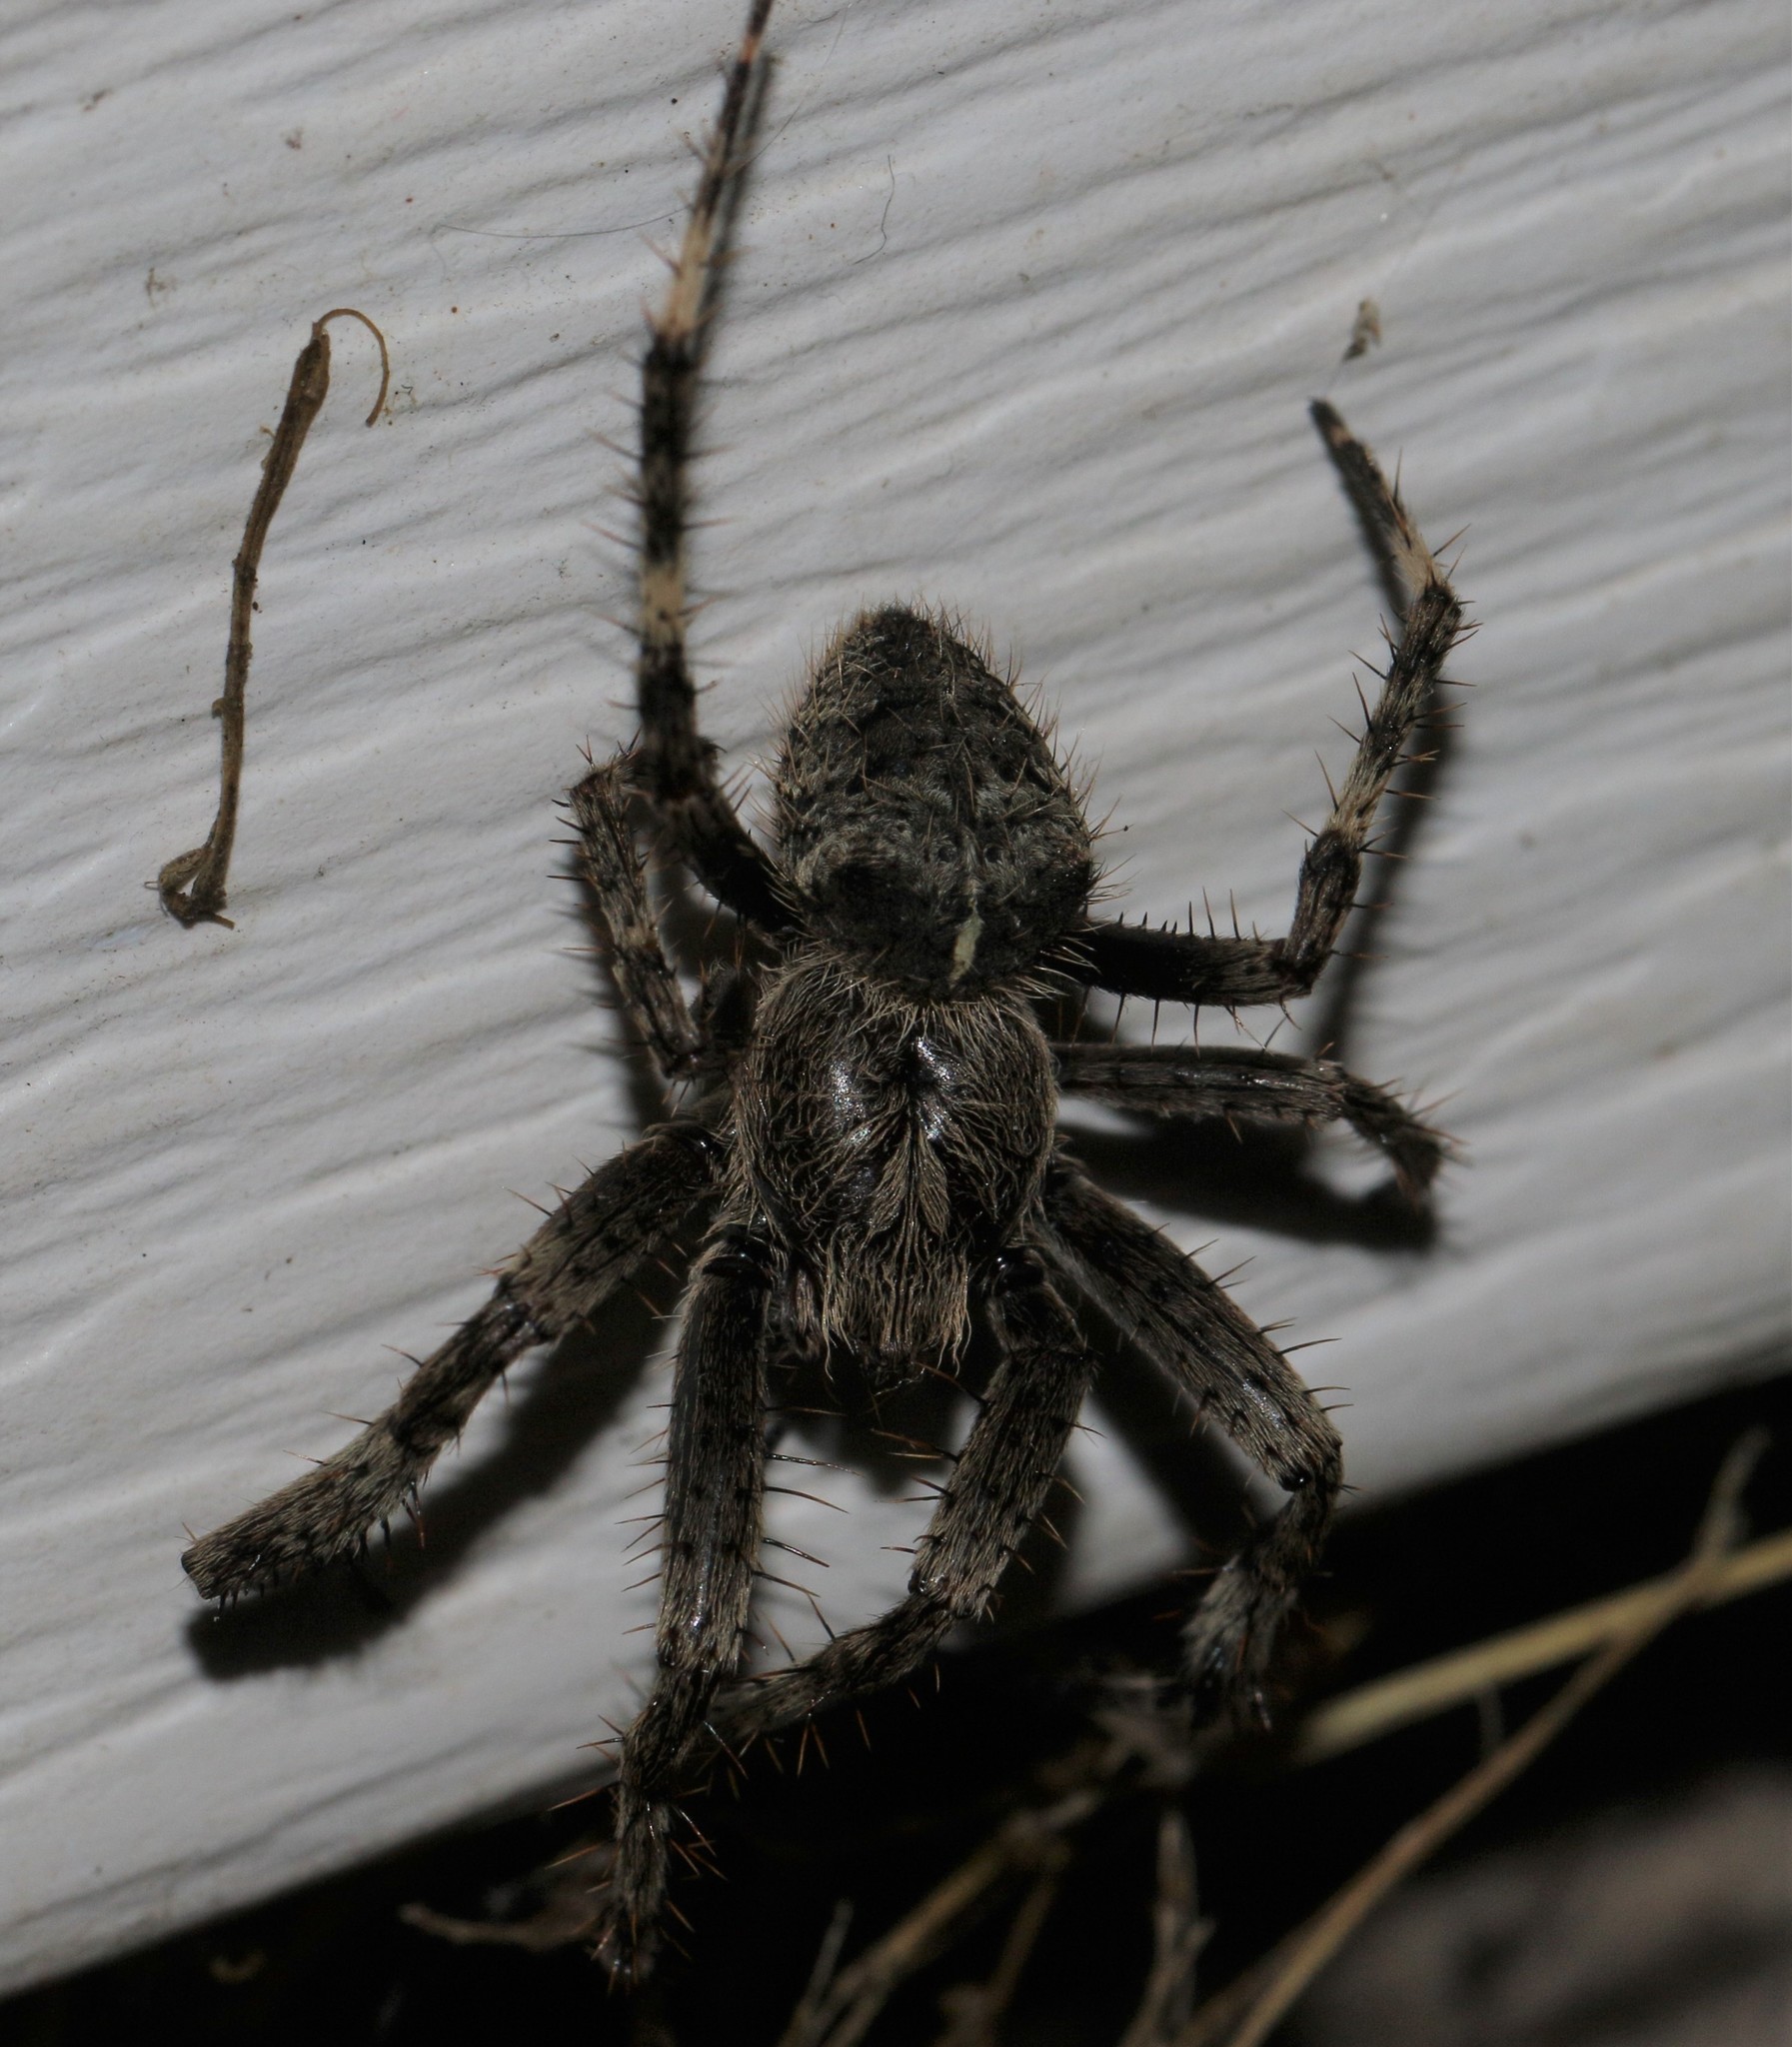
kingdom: Animalia
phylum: Arthropoda
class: Arachnida
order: Araneae
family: Araneidae
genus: Araneus
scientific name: Araneus saevus
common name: Fierce orbweaver
